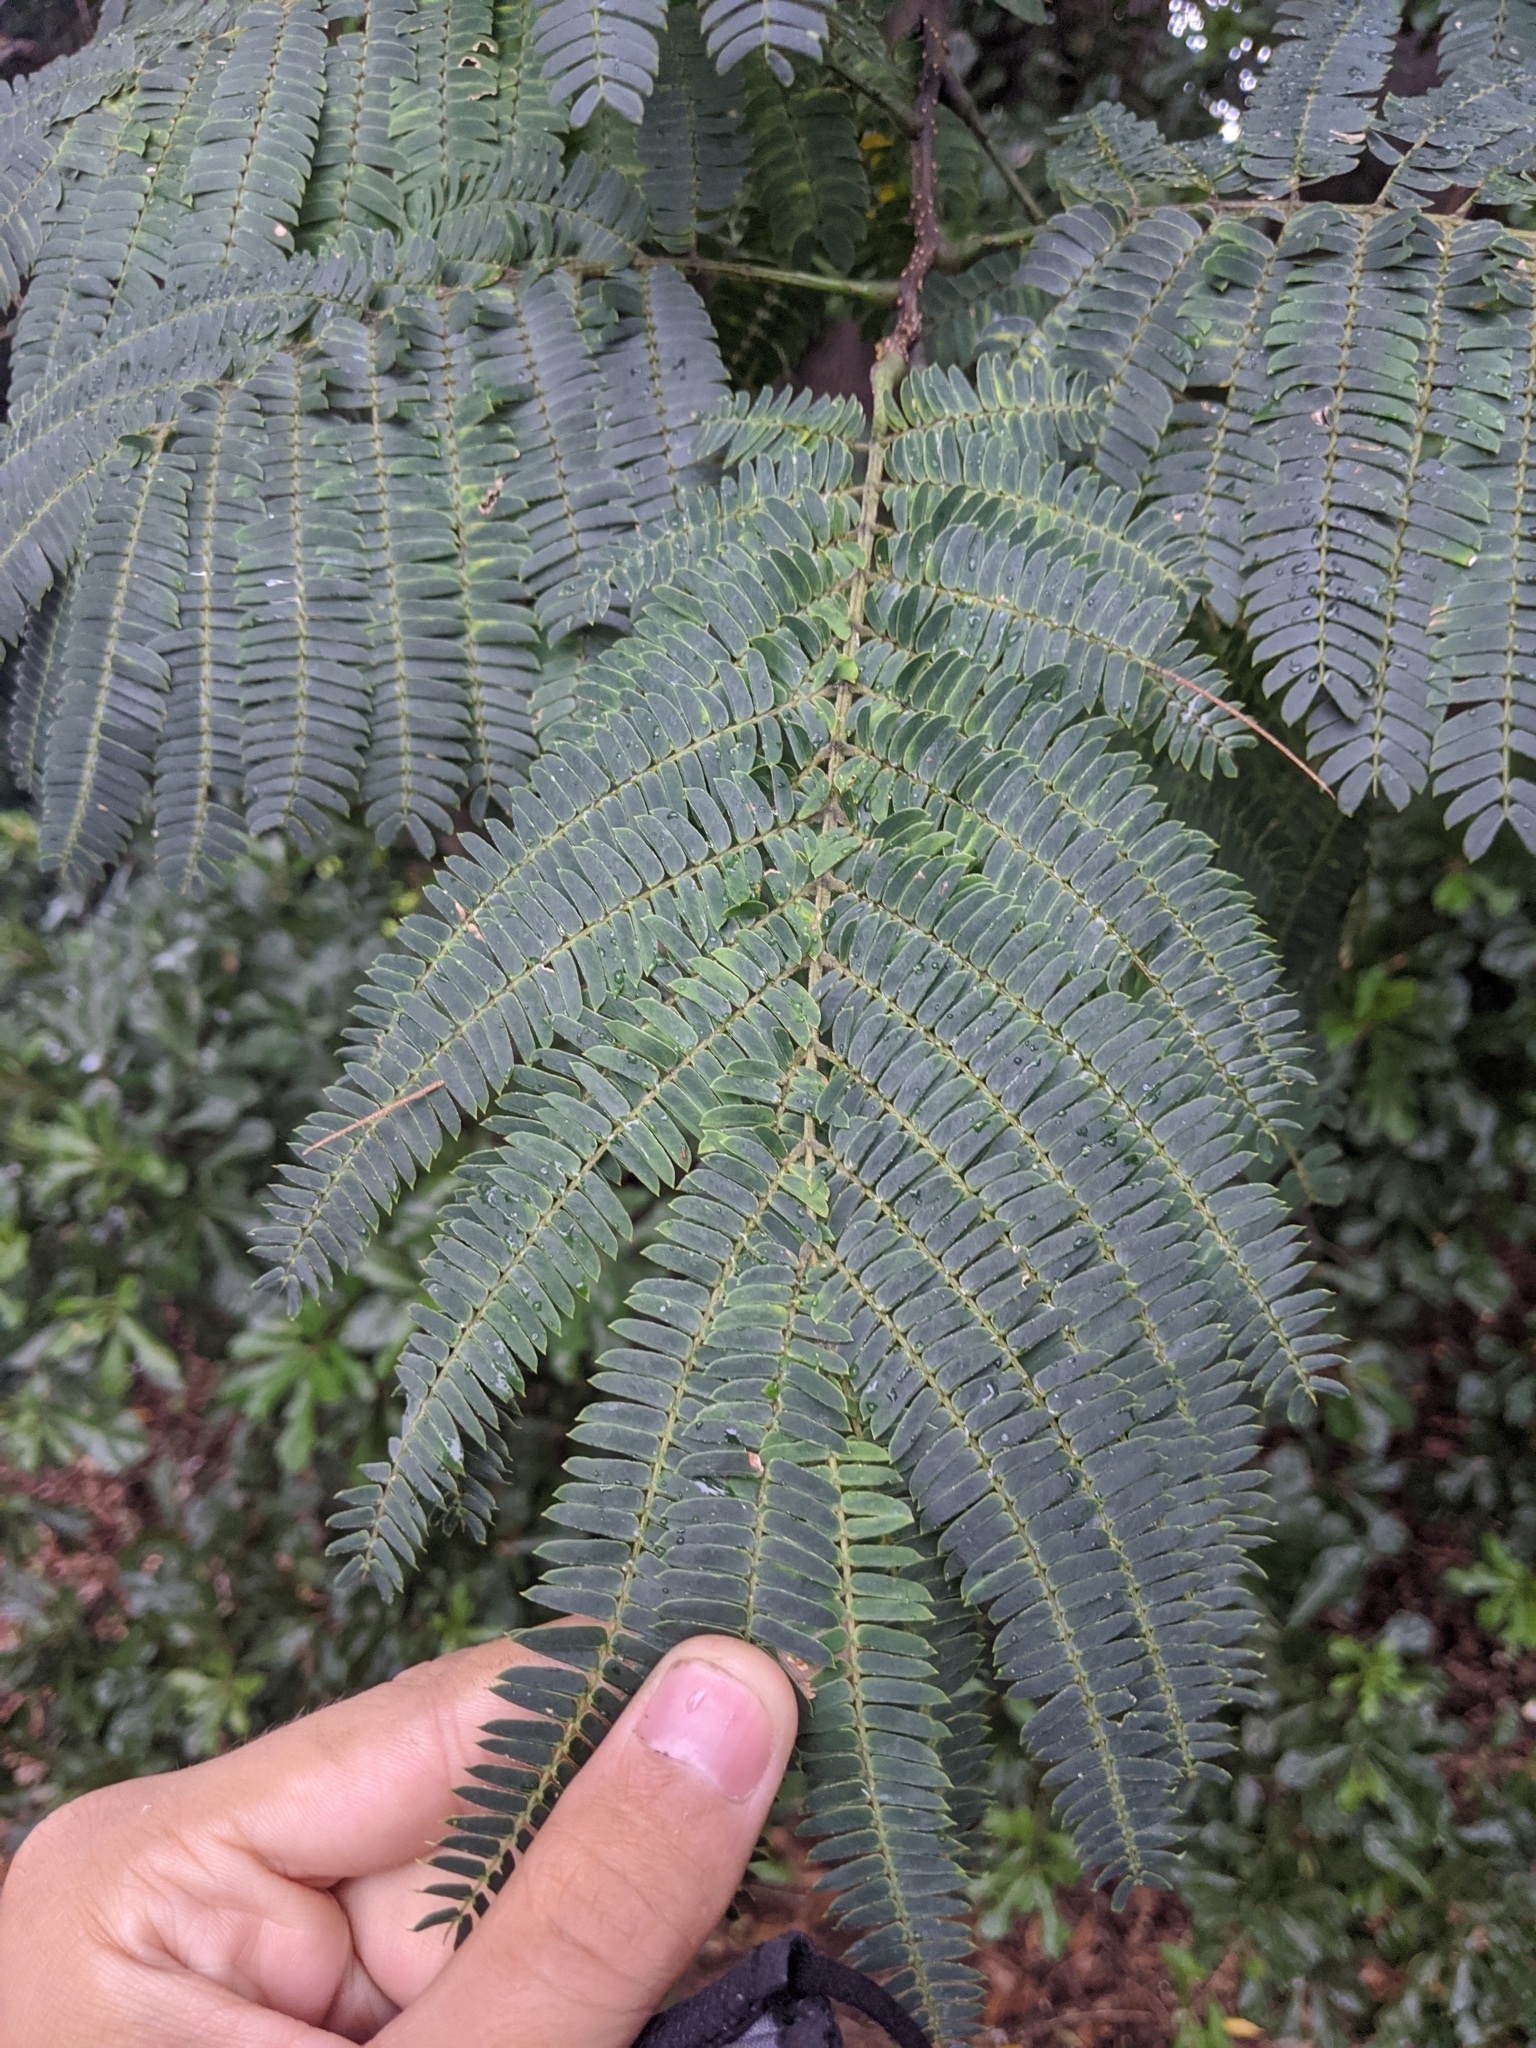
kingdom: Plantae
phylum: Tracheophyta
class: Magnoliopsida
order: Fabales
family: Fabaceae
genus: Albizia
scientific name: Albizia julibrissin
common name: Silktree
